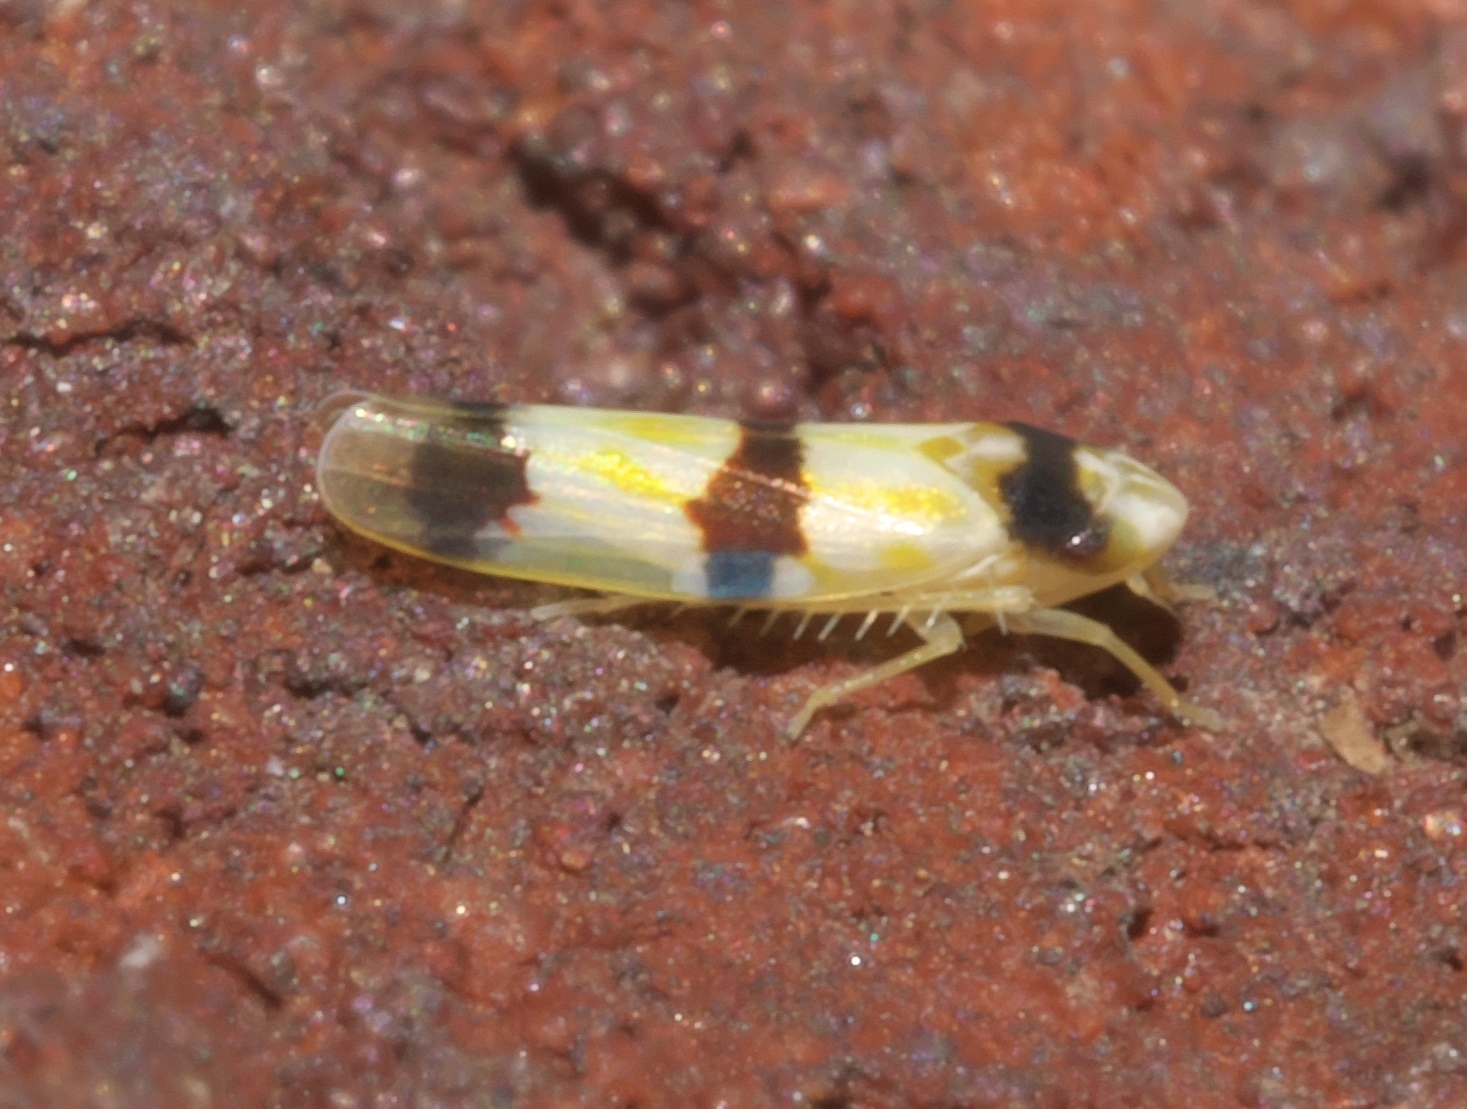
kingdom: Animalia
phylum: Arthropoda
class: Insecta
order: Hemiptera
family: Cicadellidae
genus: Erythroneura
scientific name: Erythroneura cymbium
